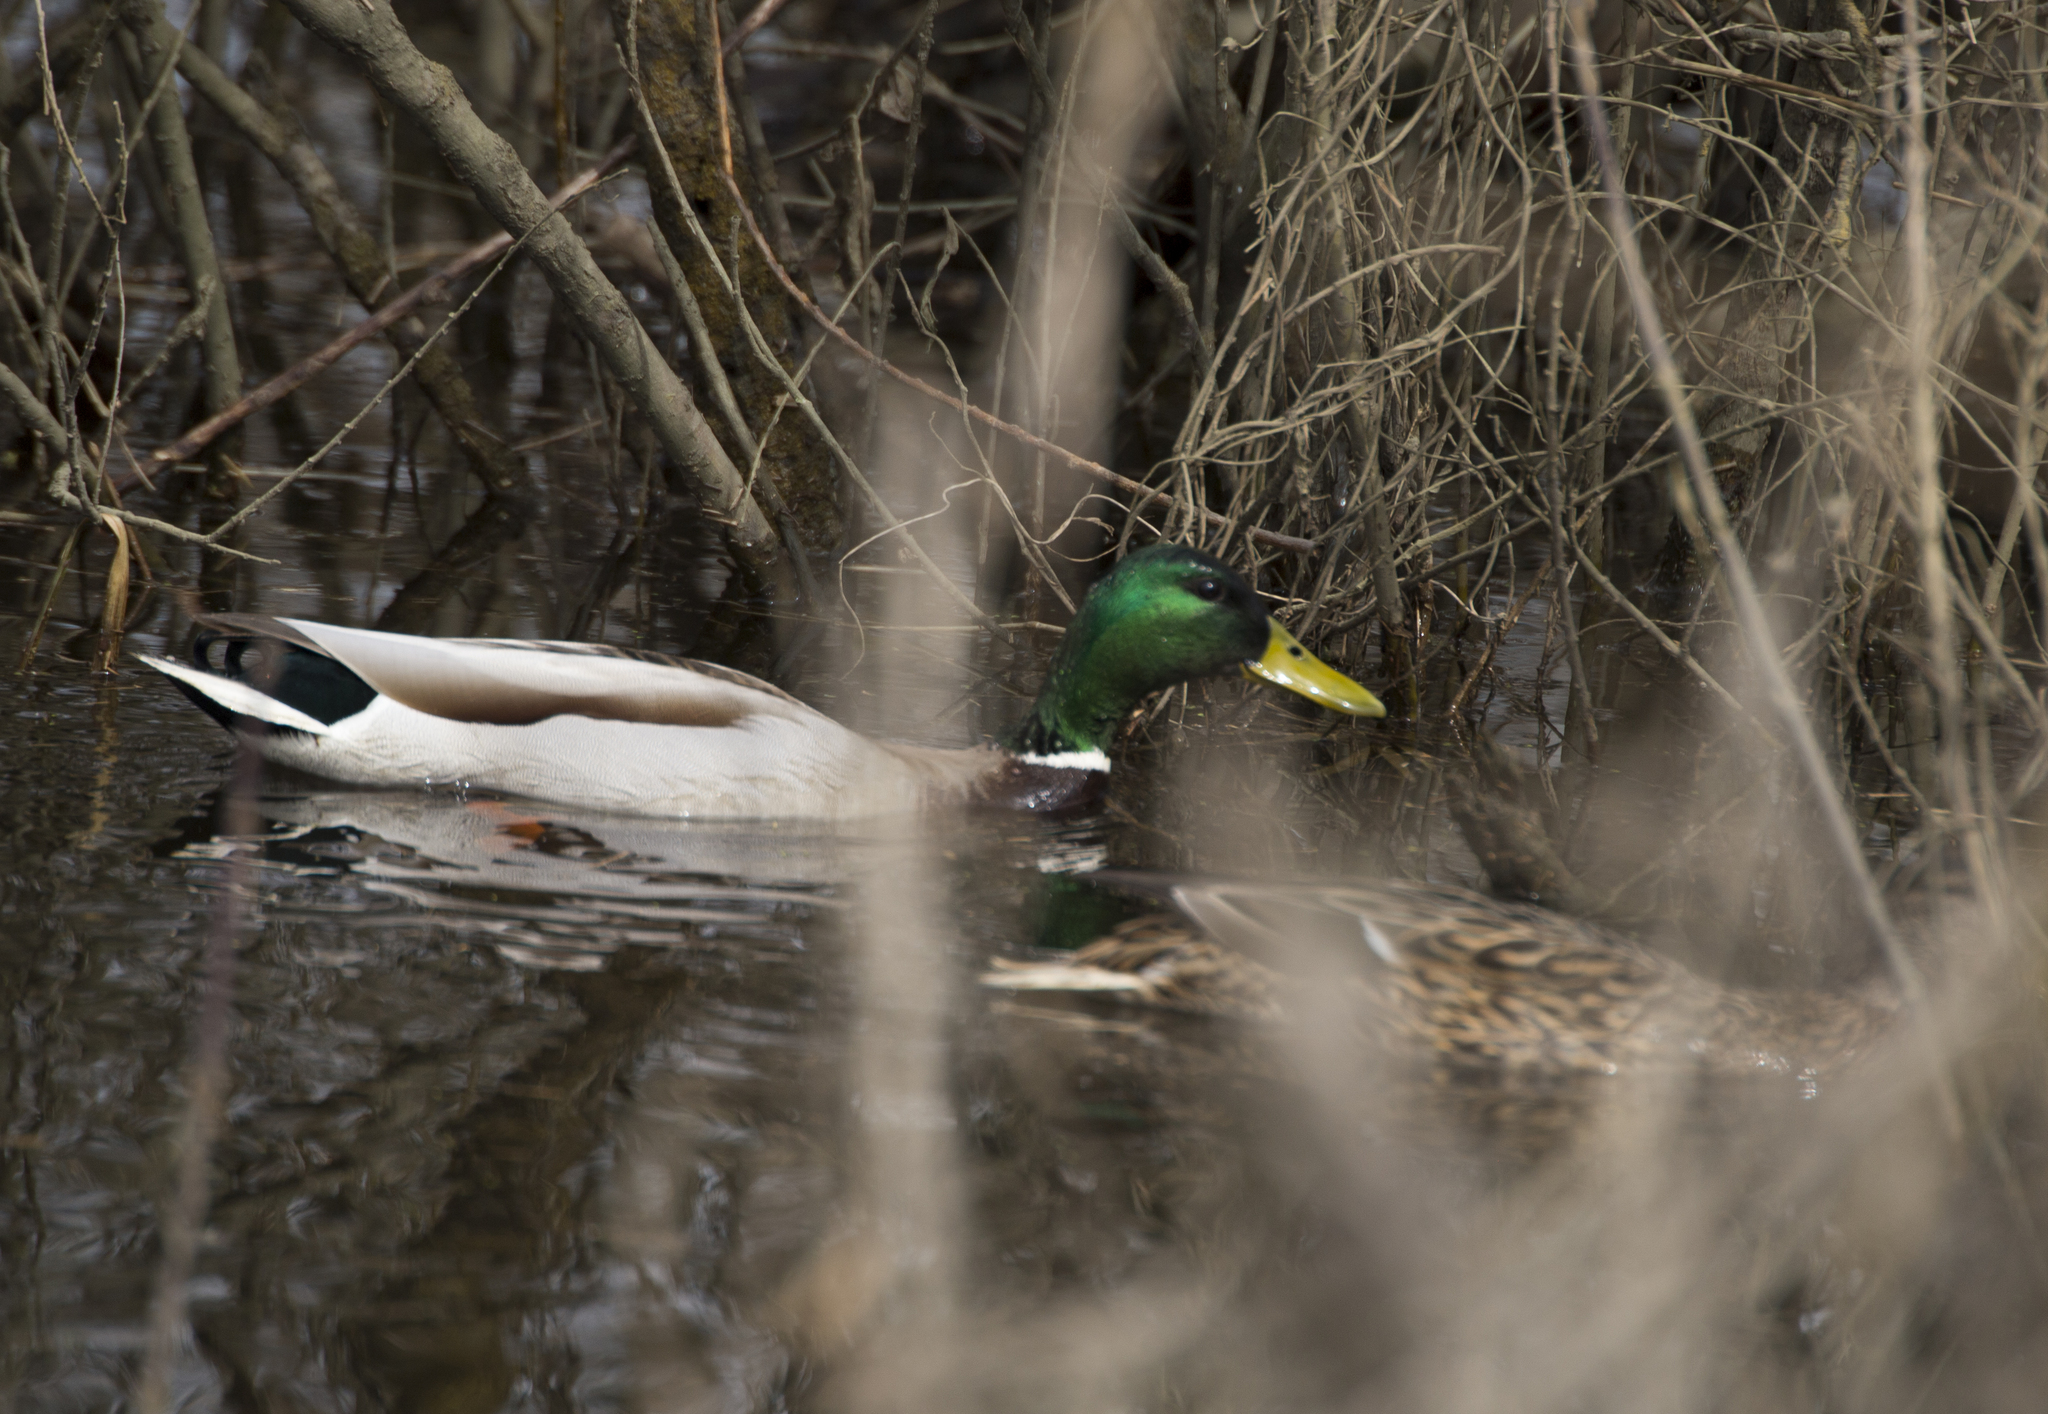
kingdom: Animalia
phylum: Chordata
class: Aves
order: Anseriformes
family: Anatidae
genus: Anas
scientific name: Anas platyrhynchos
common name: Mallard
